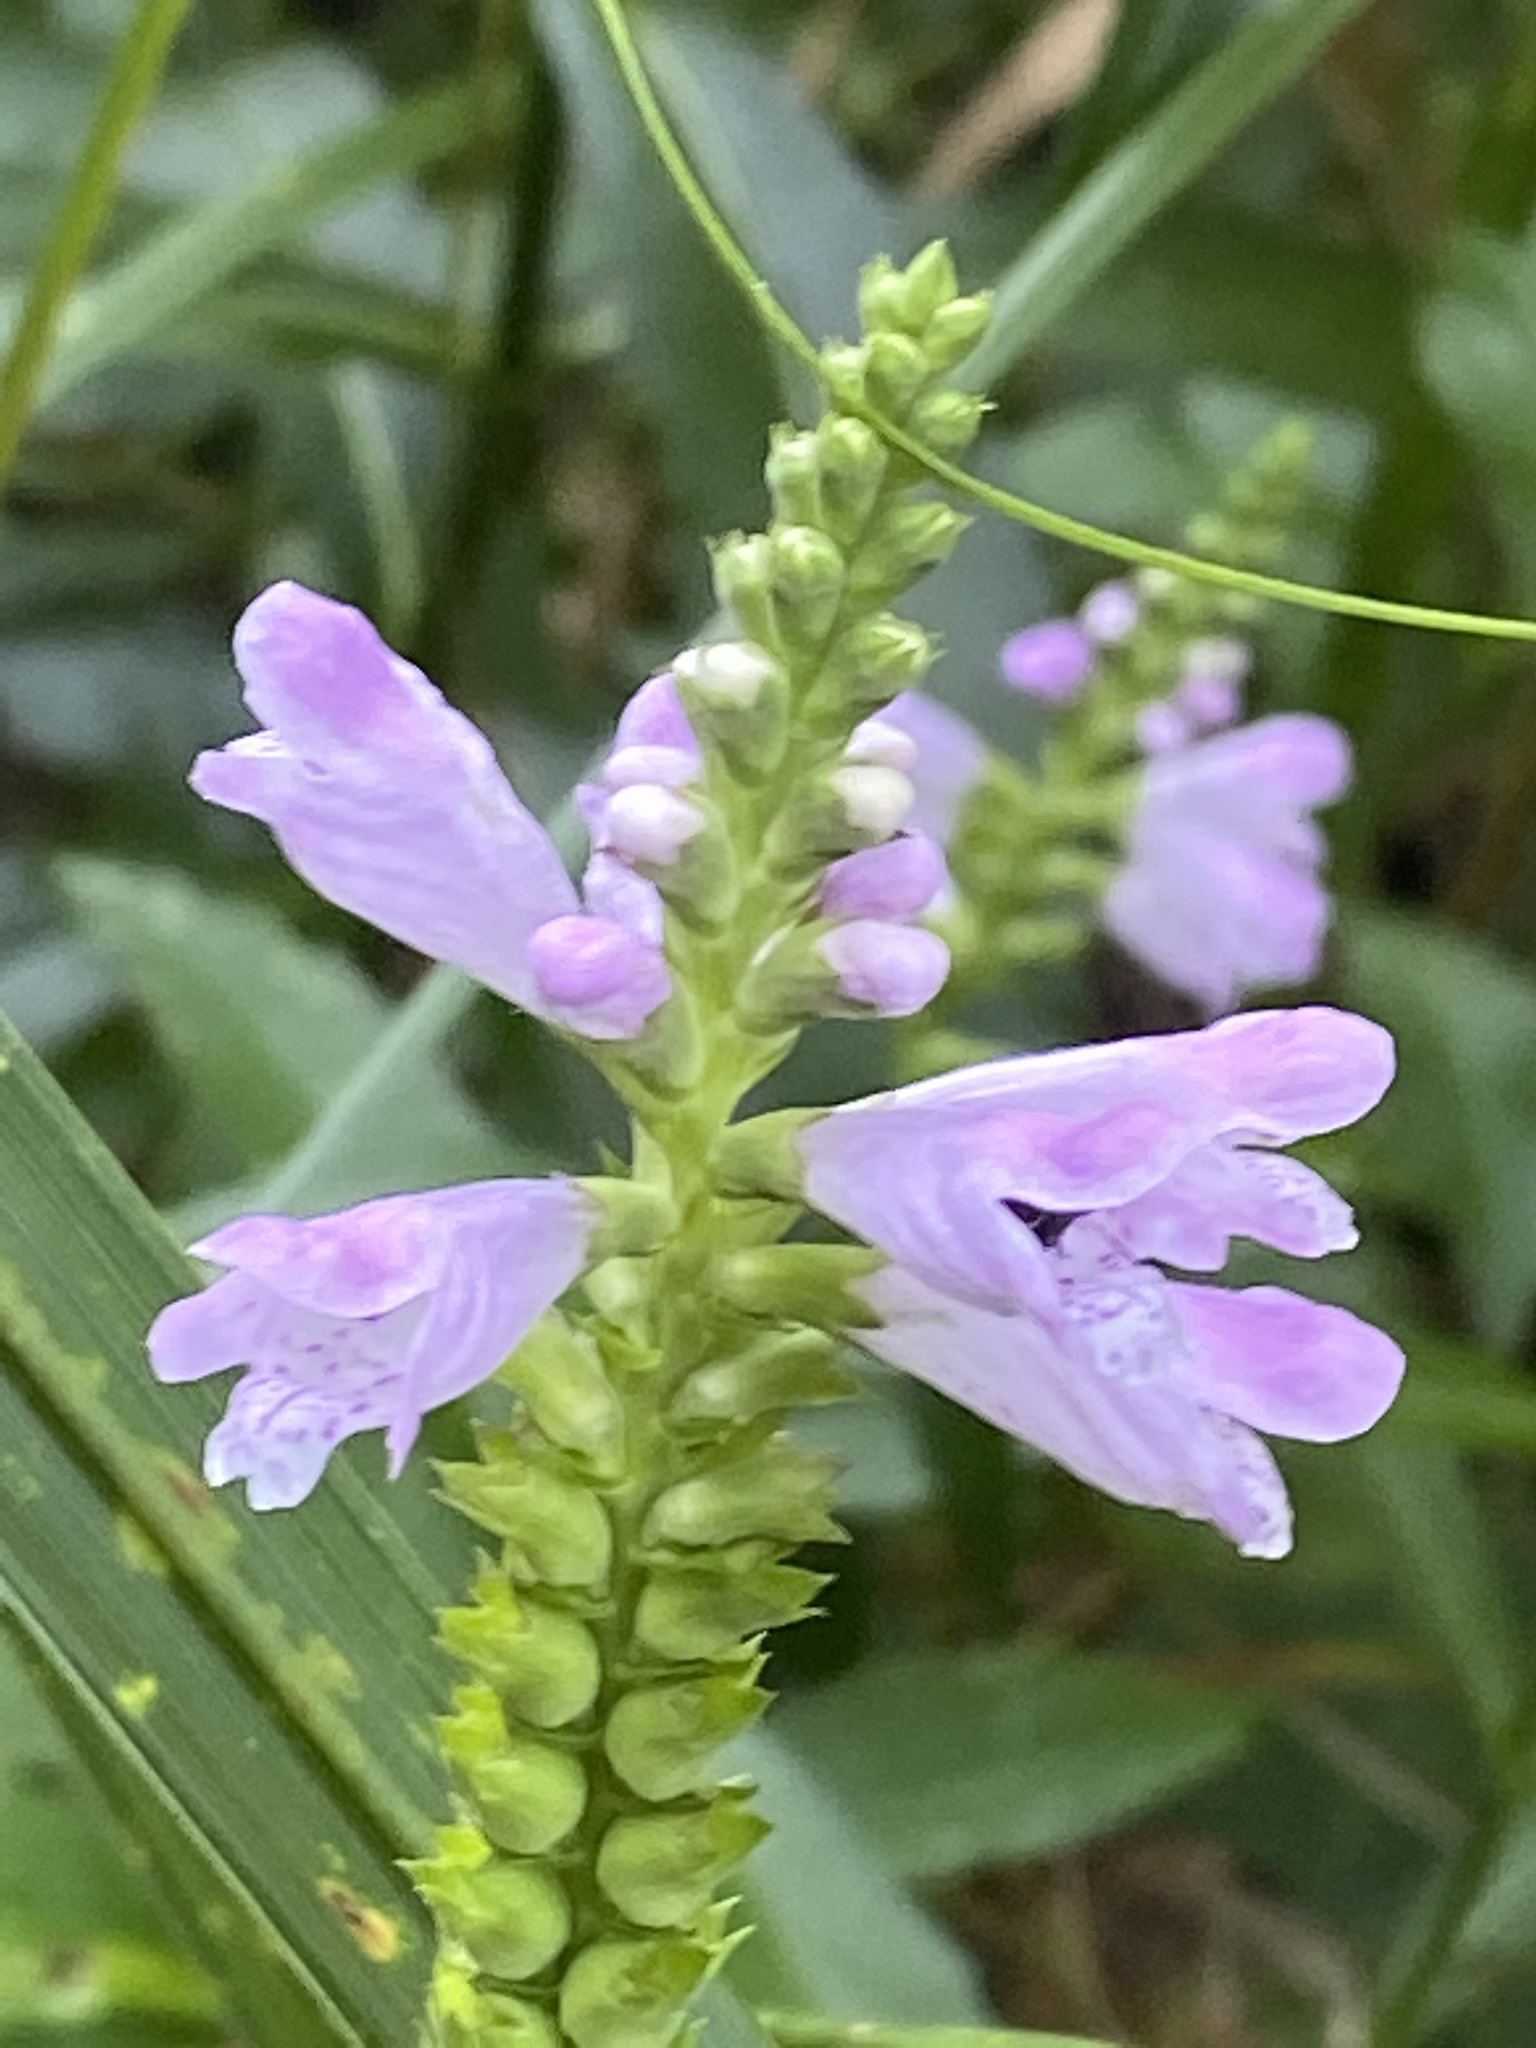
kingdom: Plantae
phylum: Tracheophyta
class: Magnoliopsida
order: Lamiales
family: Lamiaceae
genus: Physostegia
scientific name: Physostegia virginiana
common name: Obedient-plant
